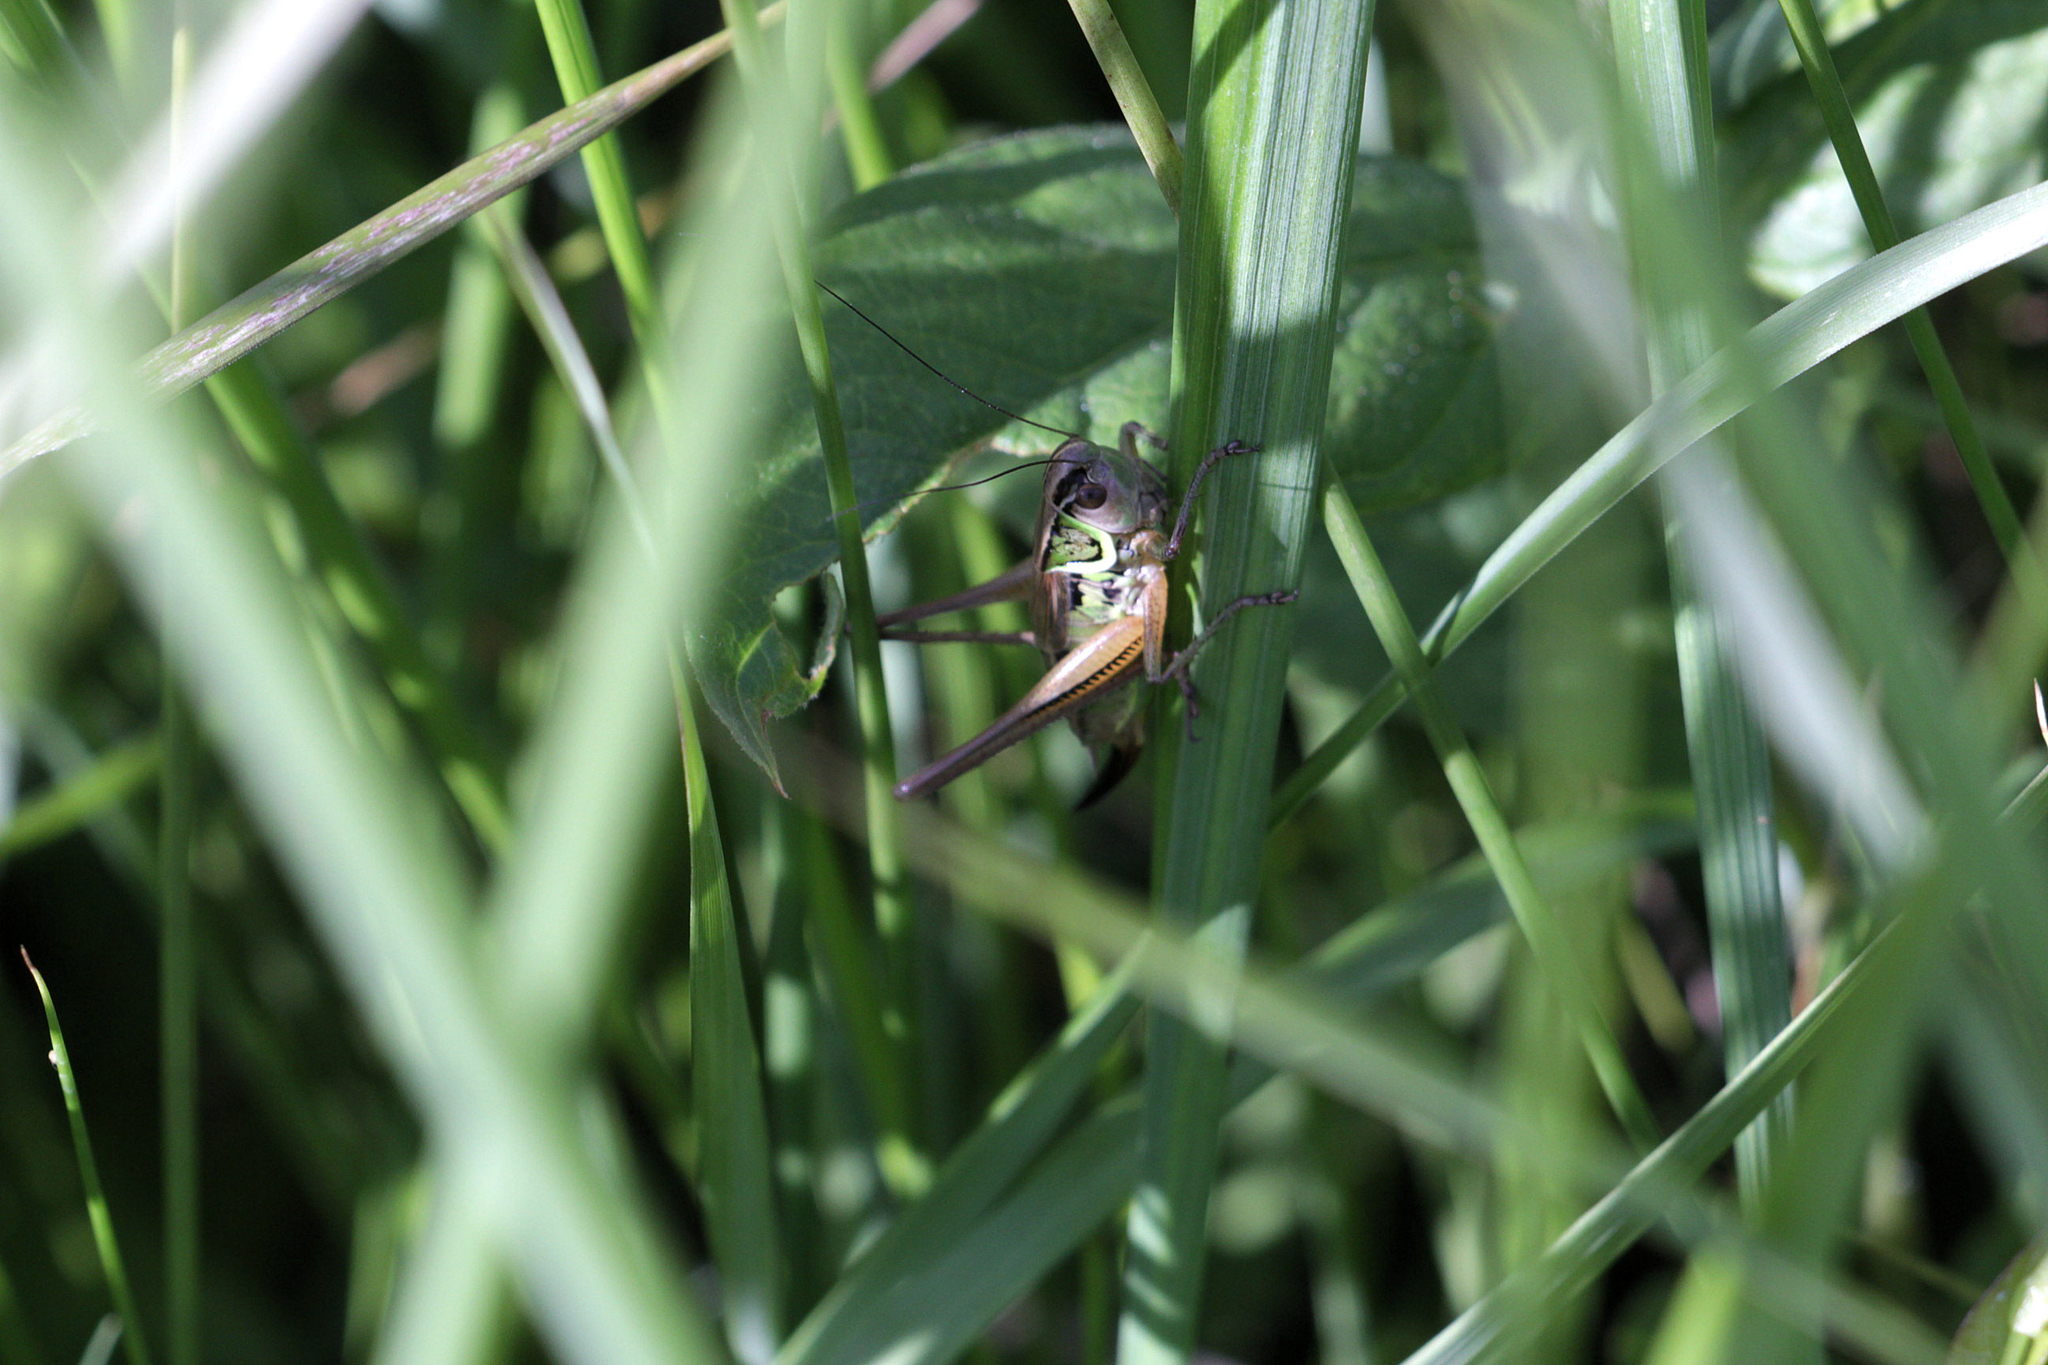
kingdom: Animalia
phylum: Arthropoda
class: Insecta
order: Orthoptera
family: Tettigoniidae
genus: Roeseliana
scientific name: Roeseliana roeselii
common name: Roesel's bush cricket
